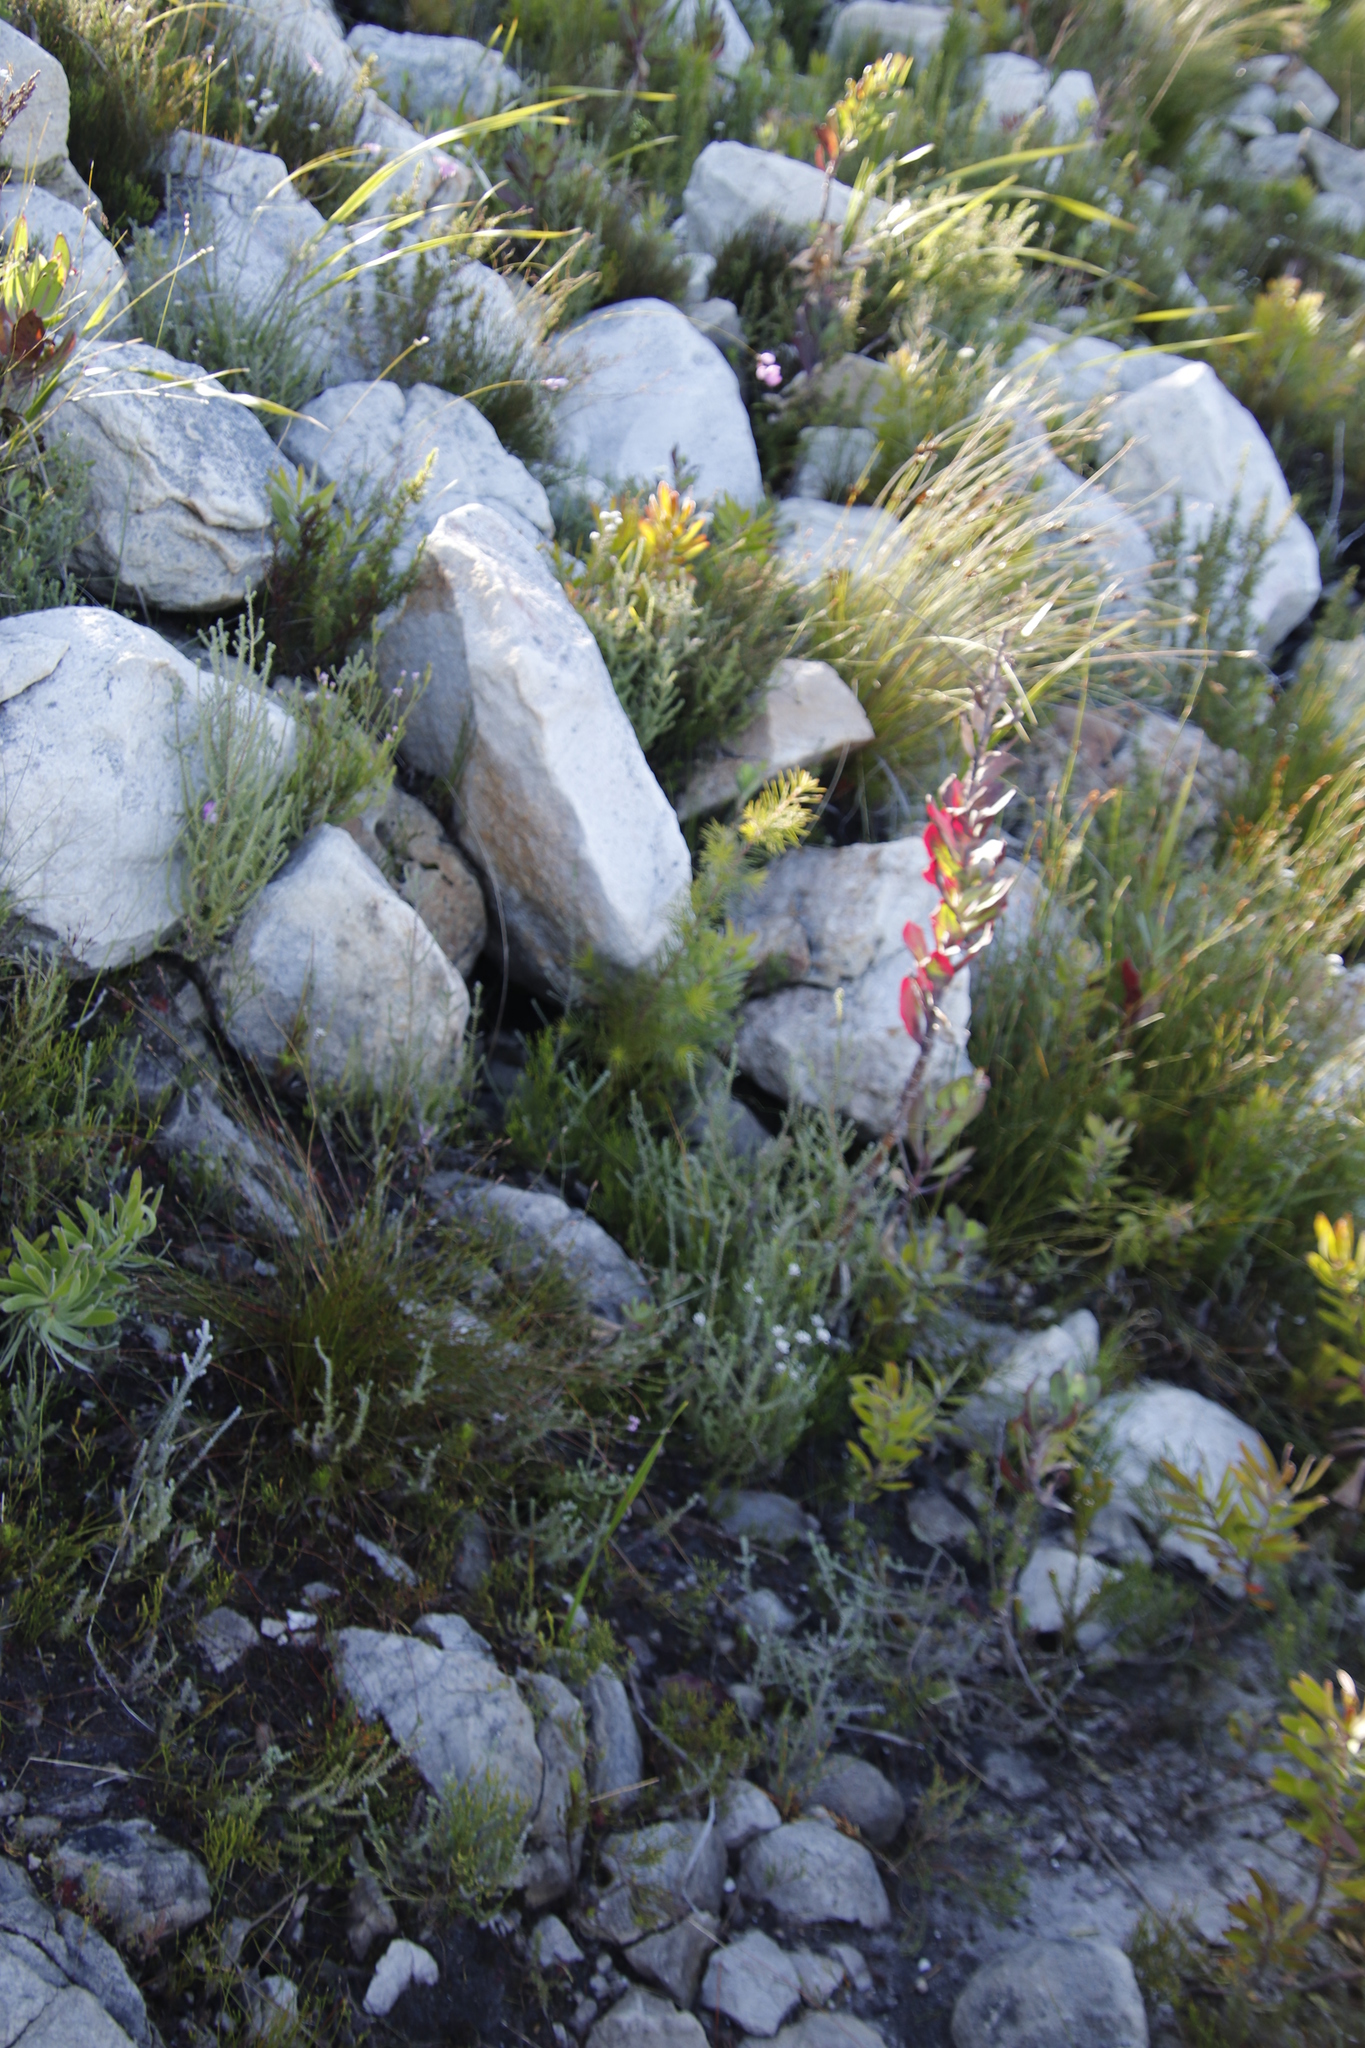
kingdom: Plantae
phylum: Tracheophyta
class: Magnoliopsida
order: Asterales
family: Asteraceae
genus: Othonna
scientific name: Othonna quinquedentata
